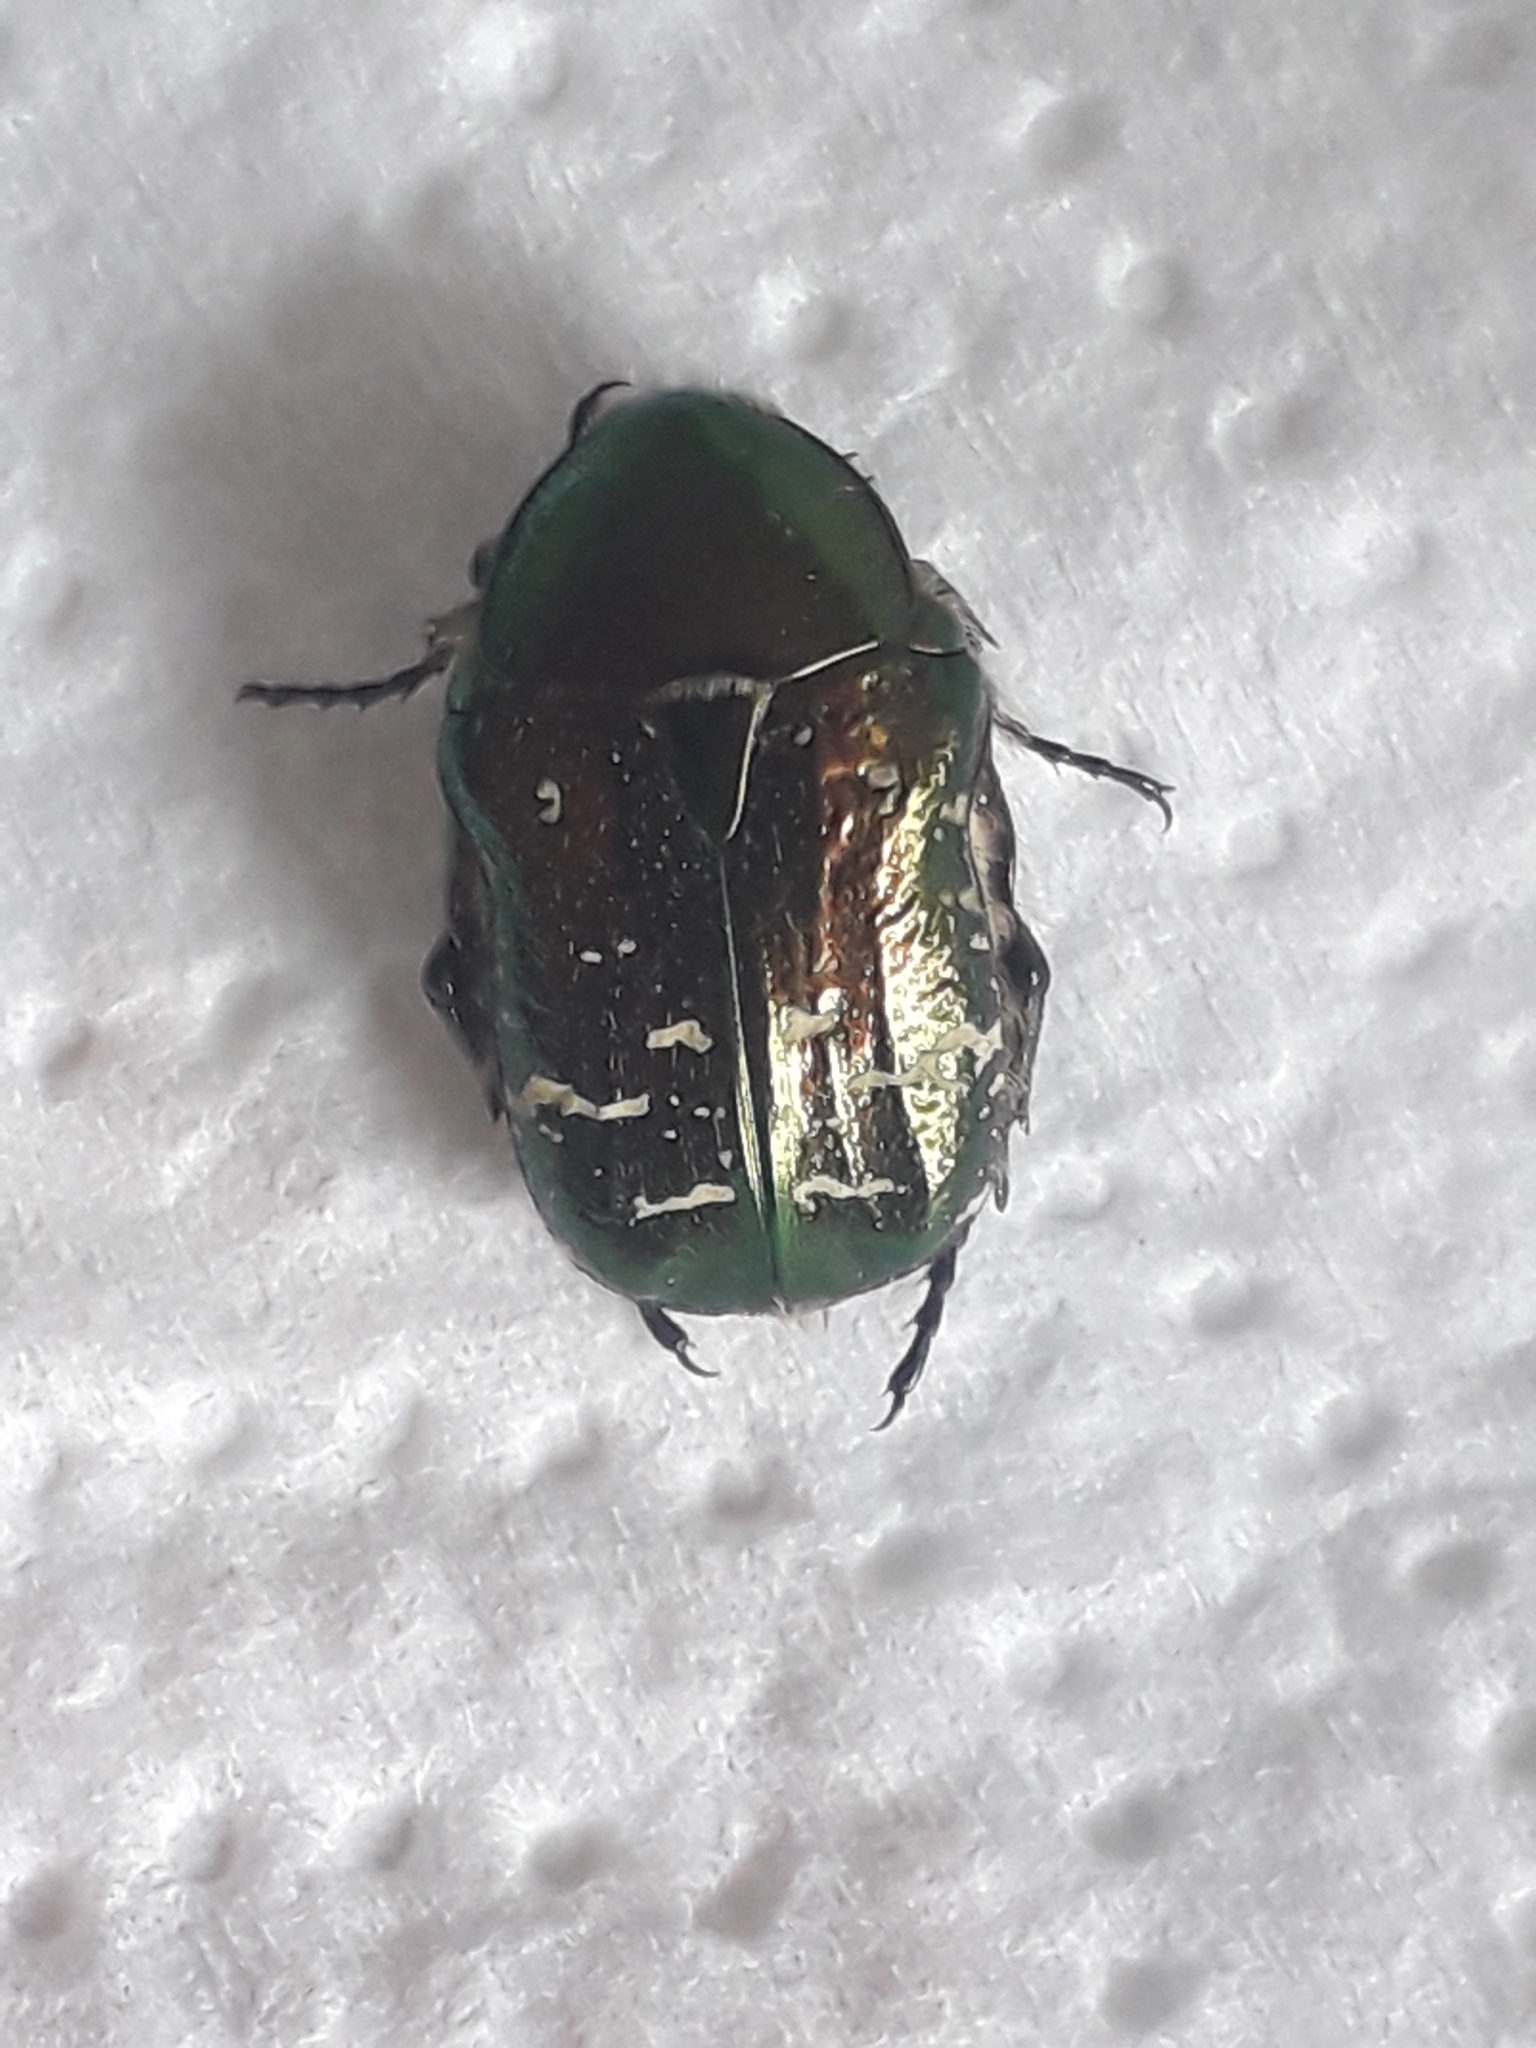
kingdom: Animalia
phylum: Arthropoda
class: Insecta
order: Coleoptera
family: Scarabaeidae
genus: Cetonia
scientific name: Cetonia aurata
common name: Rose chafer
